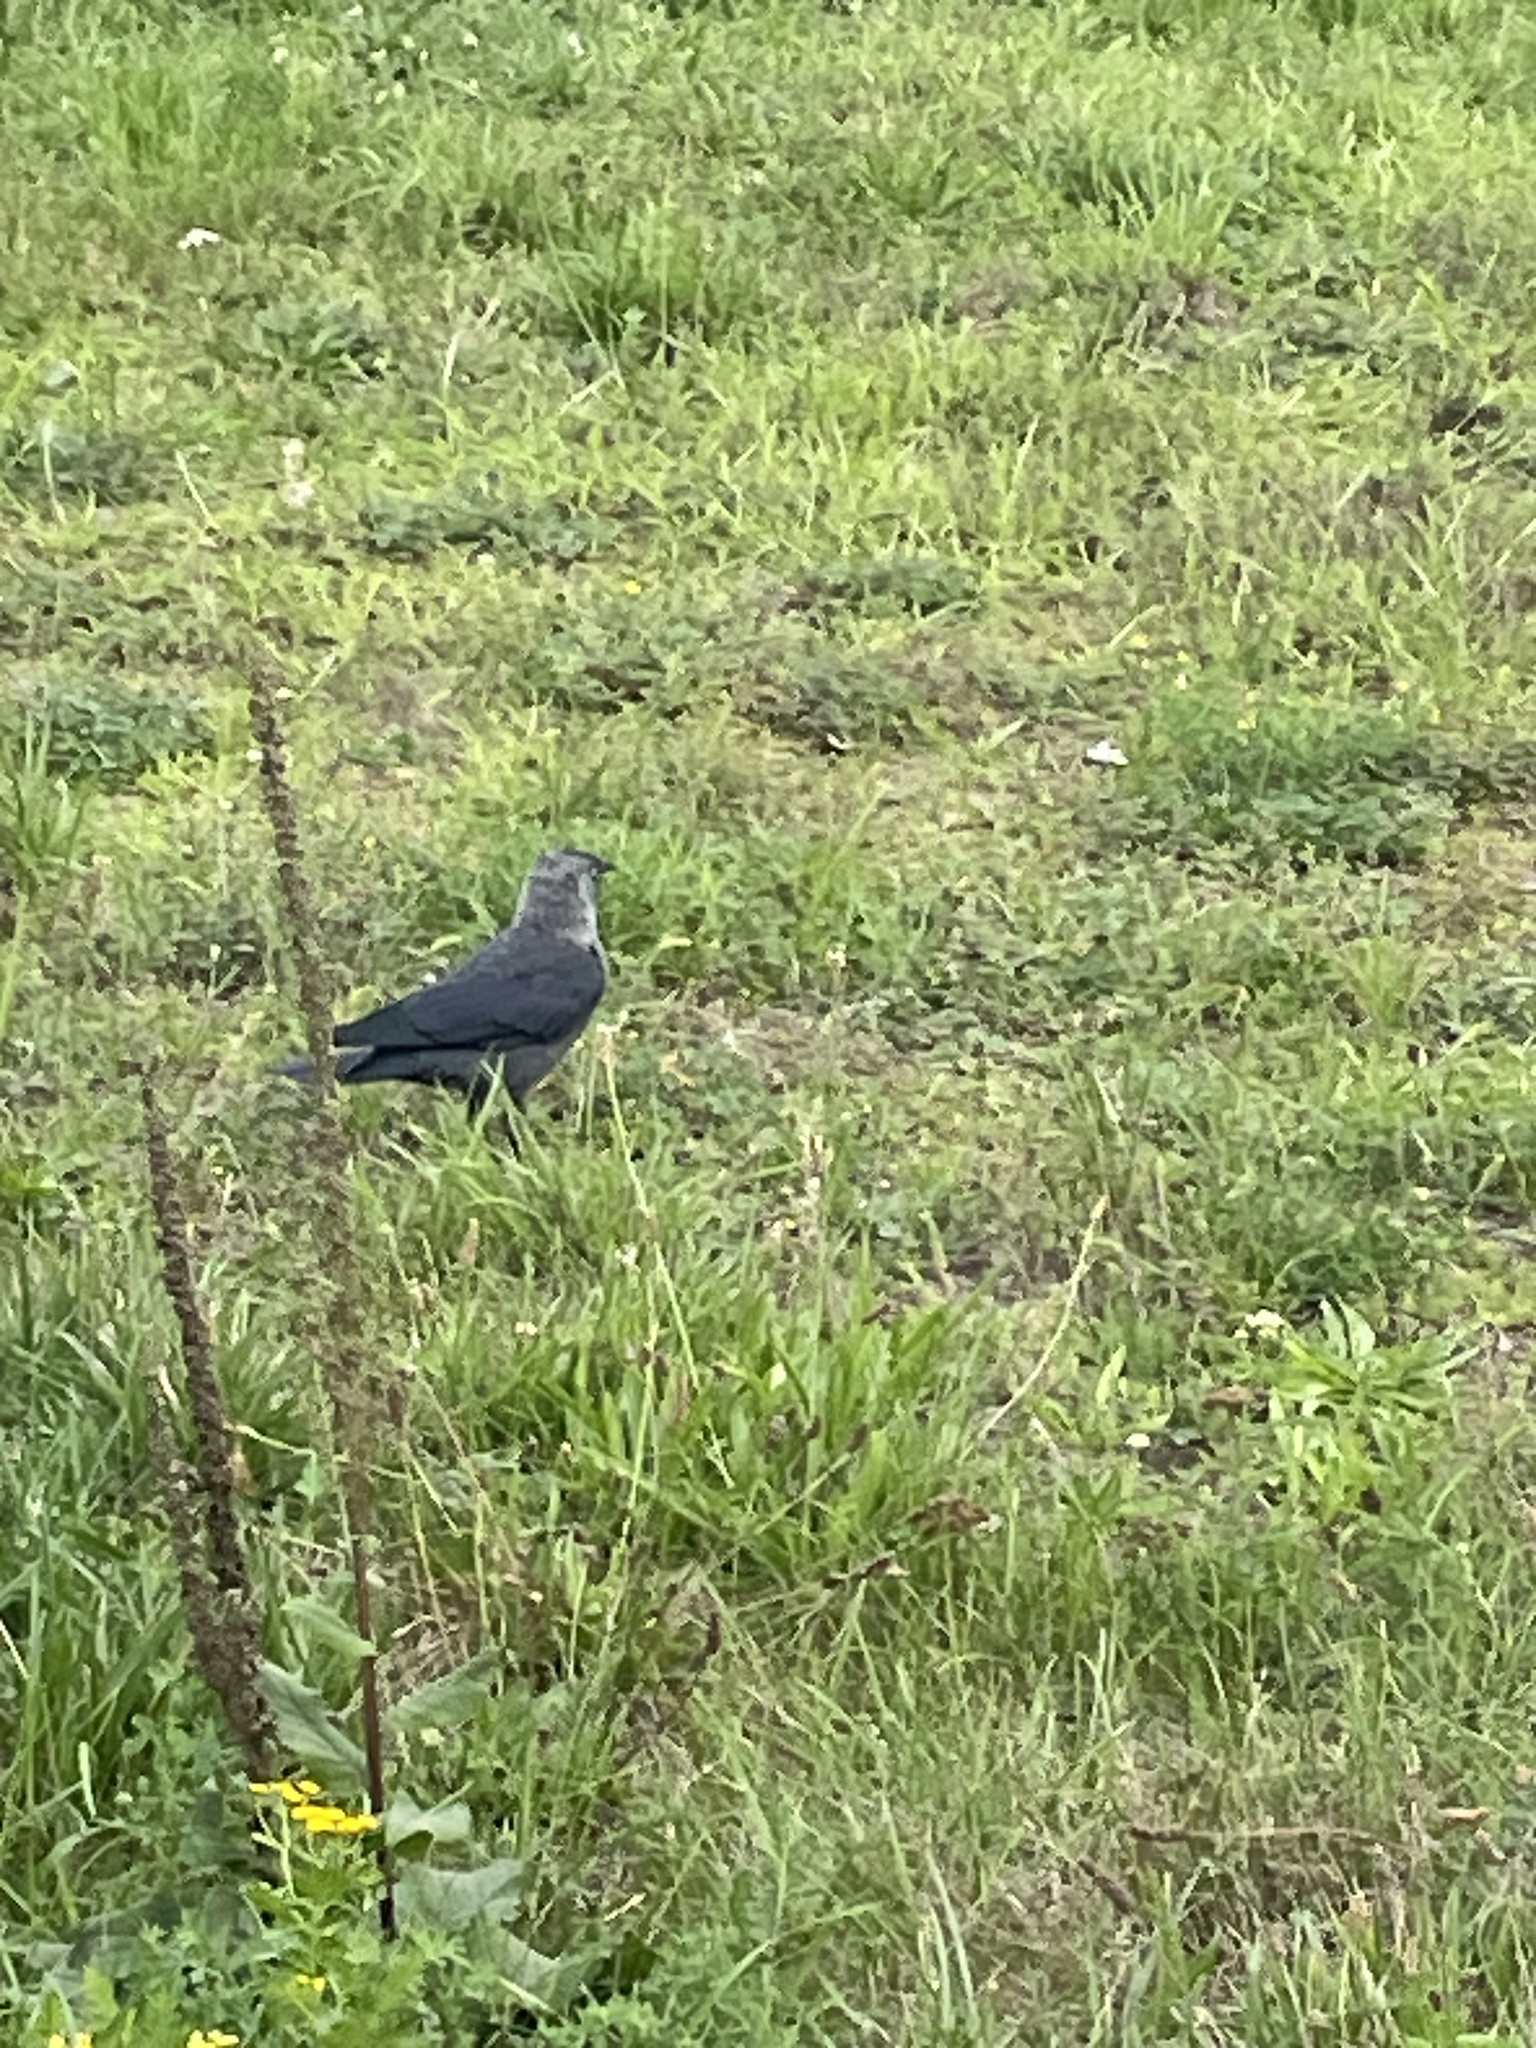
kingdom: Animalia
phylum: Chordata
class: Aves
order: Passeriformes
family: Corvidae
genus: Coloeus
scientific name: Coloeus monedula
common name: Western jackdaw
